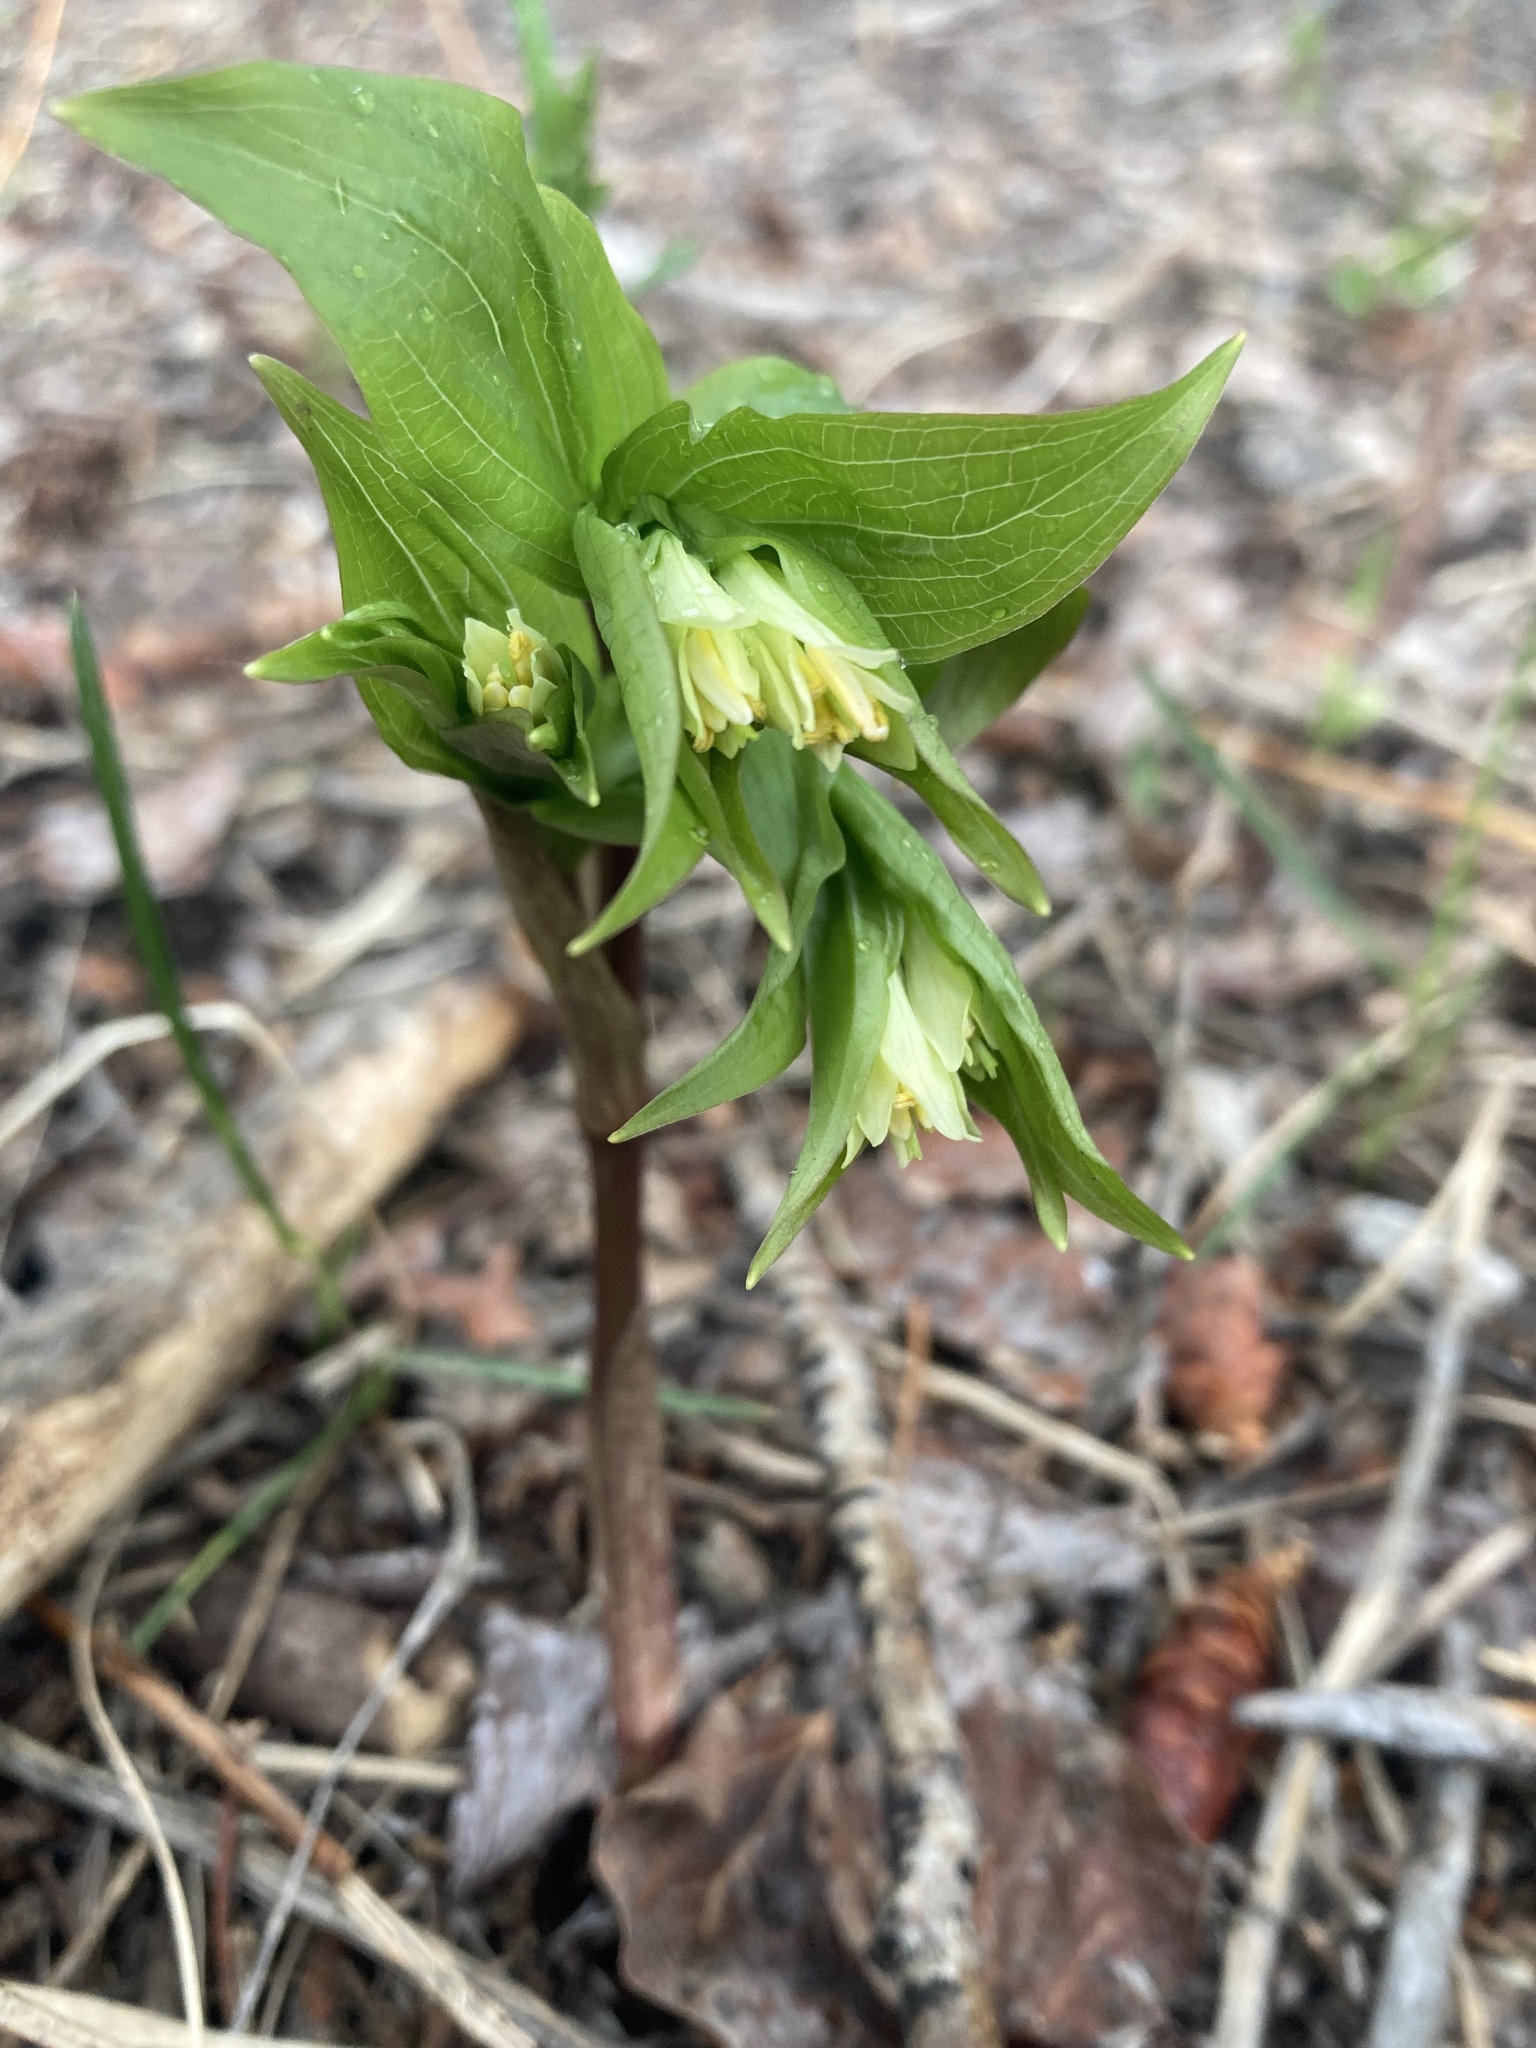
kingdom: Plantae
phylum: Tracheophyta
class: Liliopsida
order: Liliales
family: Liliaceae
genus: Prosartes
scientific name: Prosartes trachycarpa
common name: Rough-fruit fairy-bells
